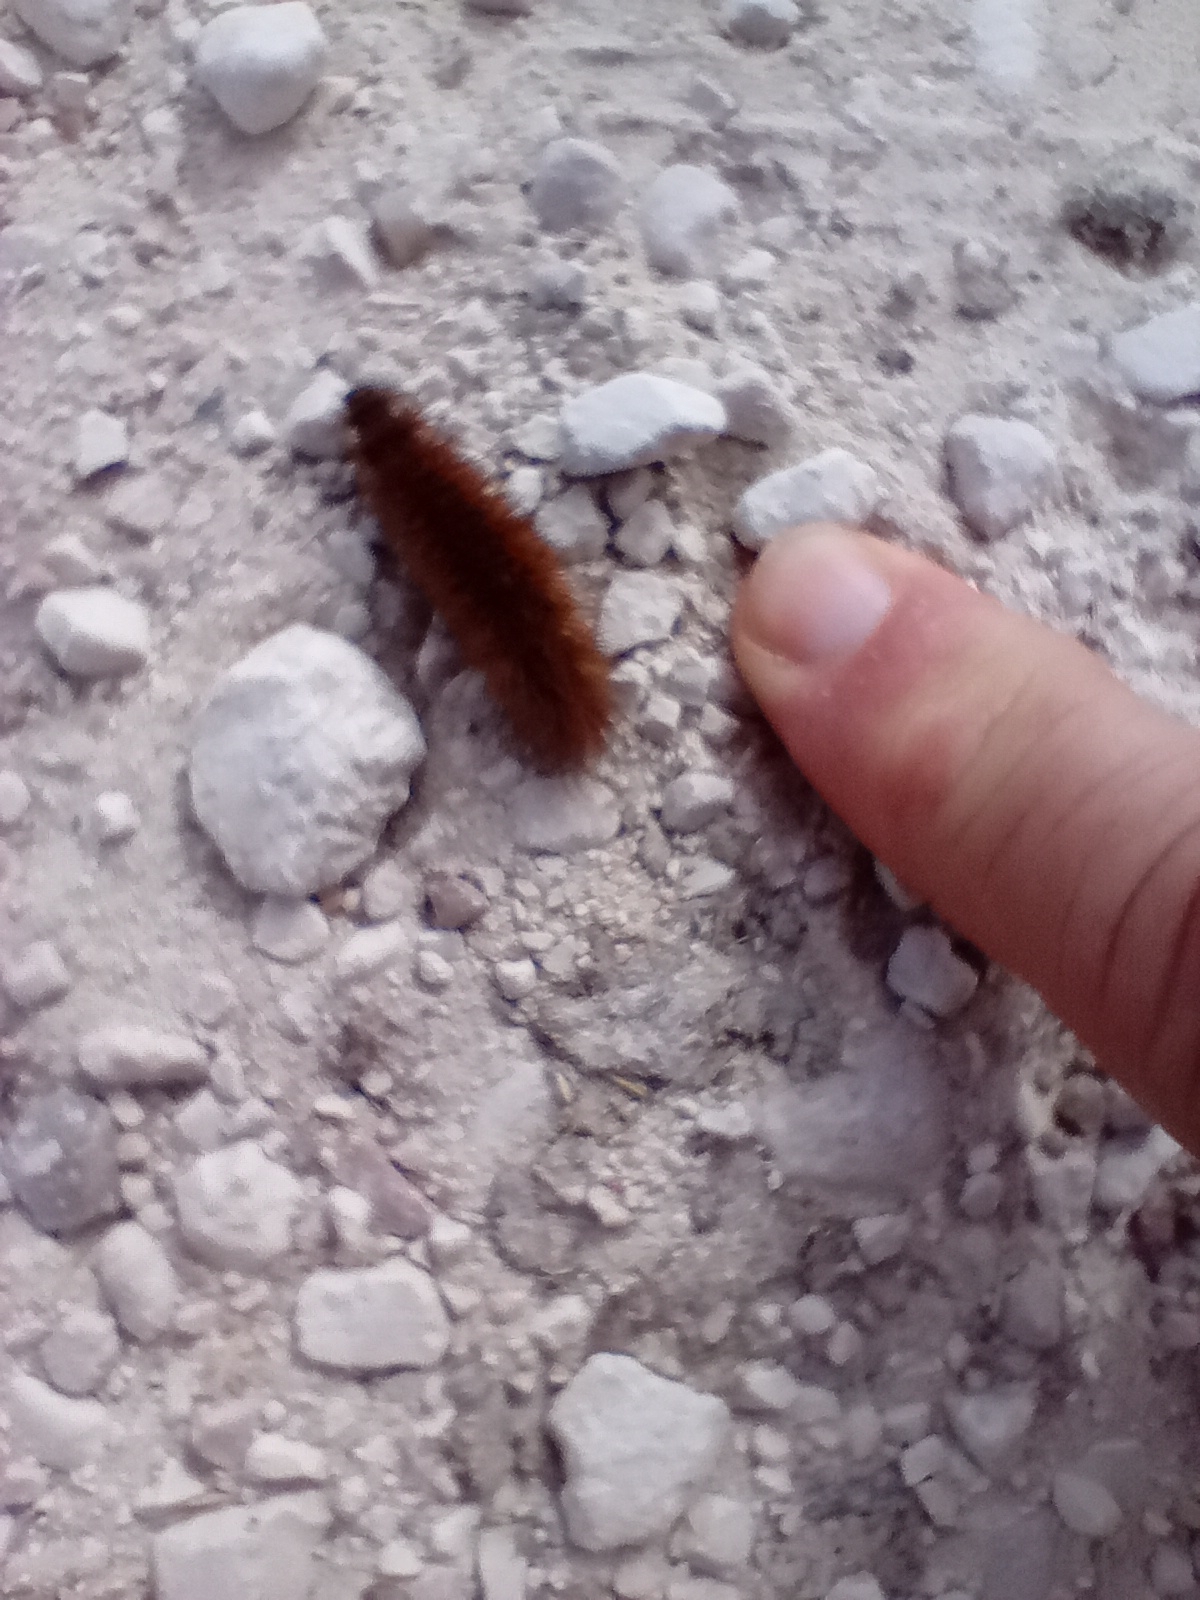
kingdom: Animalia
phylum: Arthropoda
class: Insecta
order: Lepidoptera
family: Erebidae
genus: Phragmatobia
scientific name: Phragmatobia fuliginosa
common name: Ruby tiger
